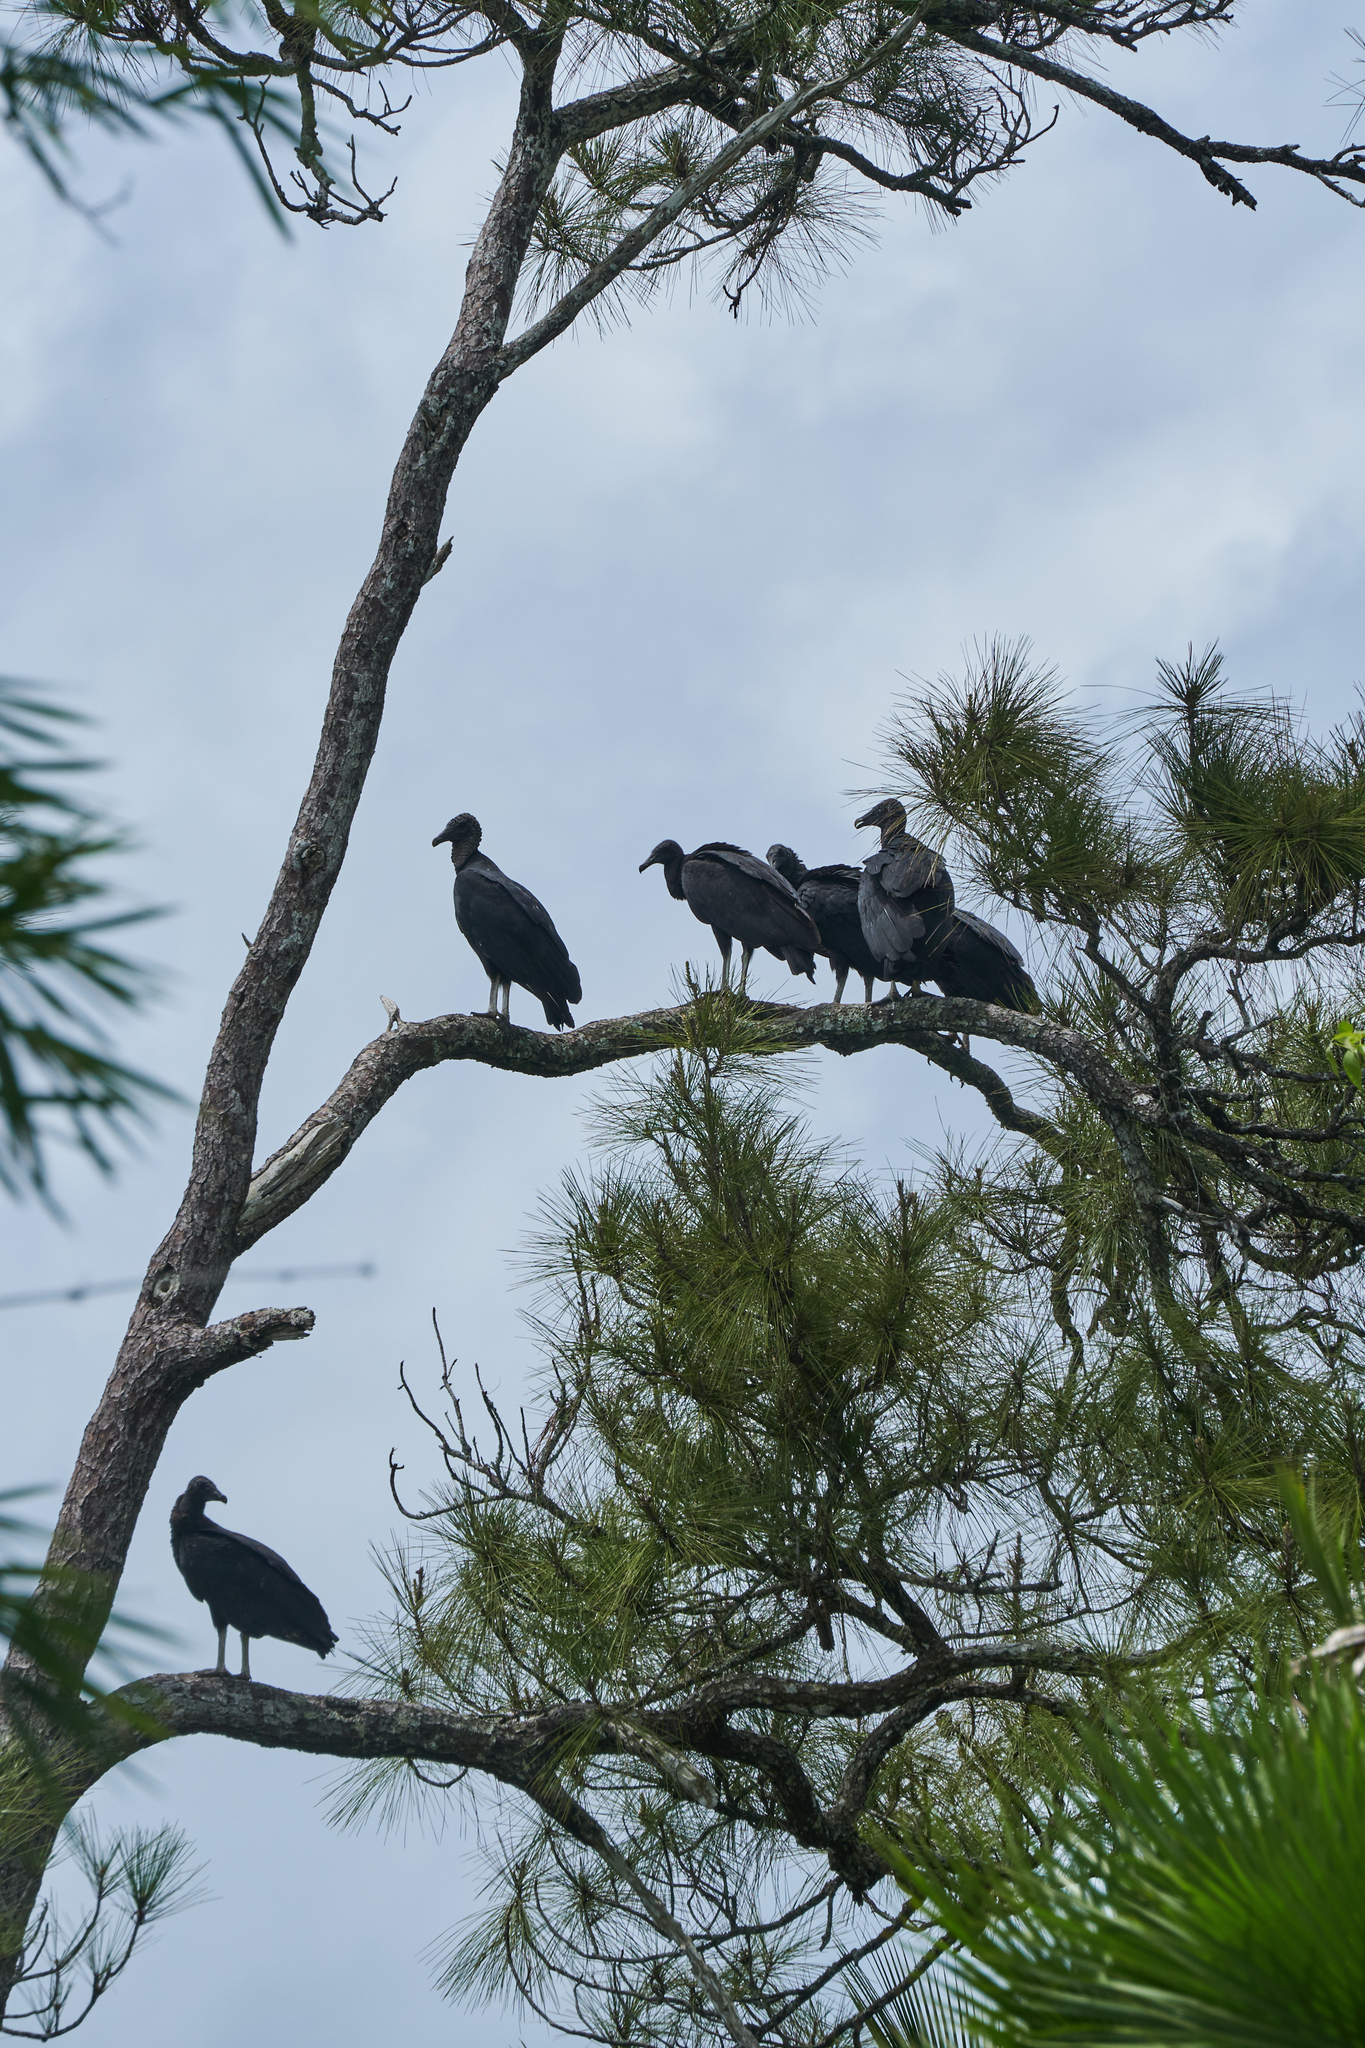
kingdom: Animalia
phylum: Chordata
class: Aves
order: Accipitriformes
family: Cathartidae
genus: Coragyps
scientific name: Coragyps atratus
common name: Black vulture
